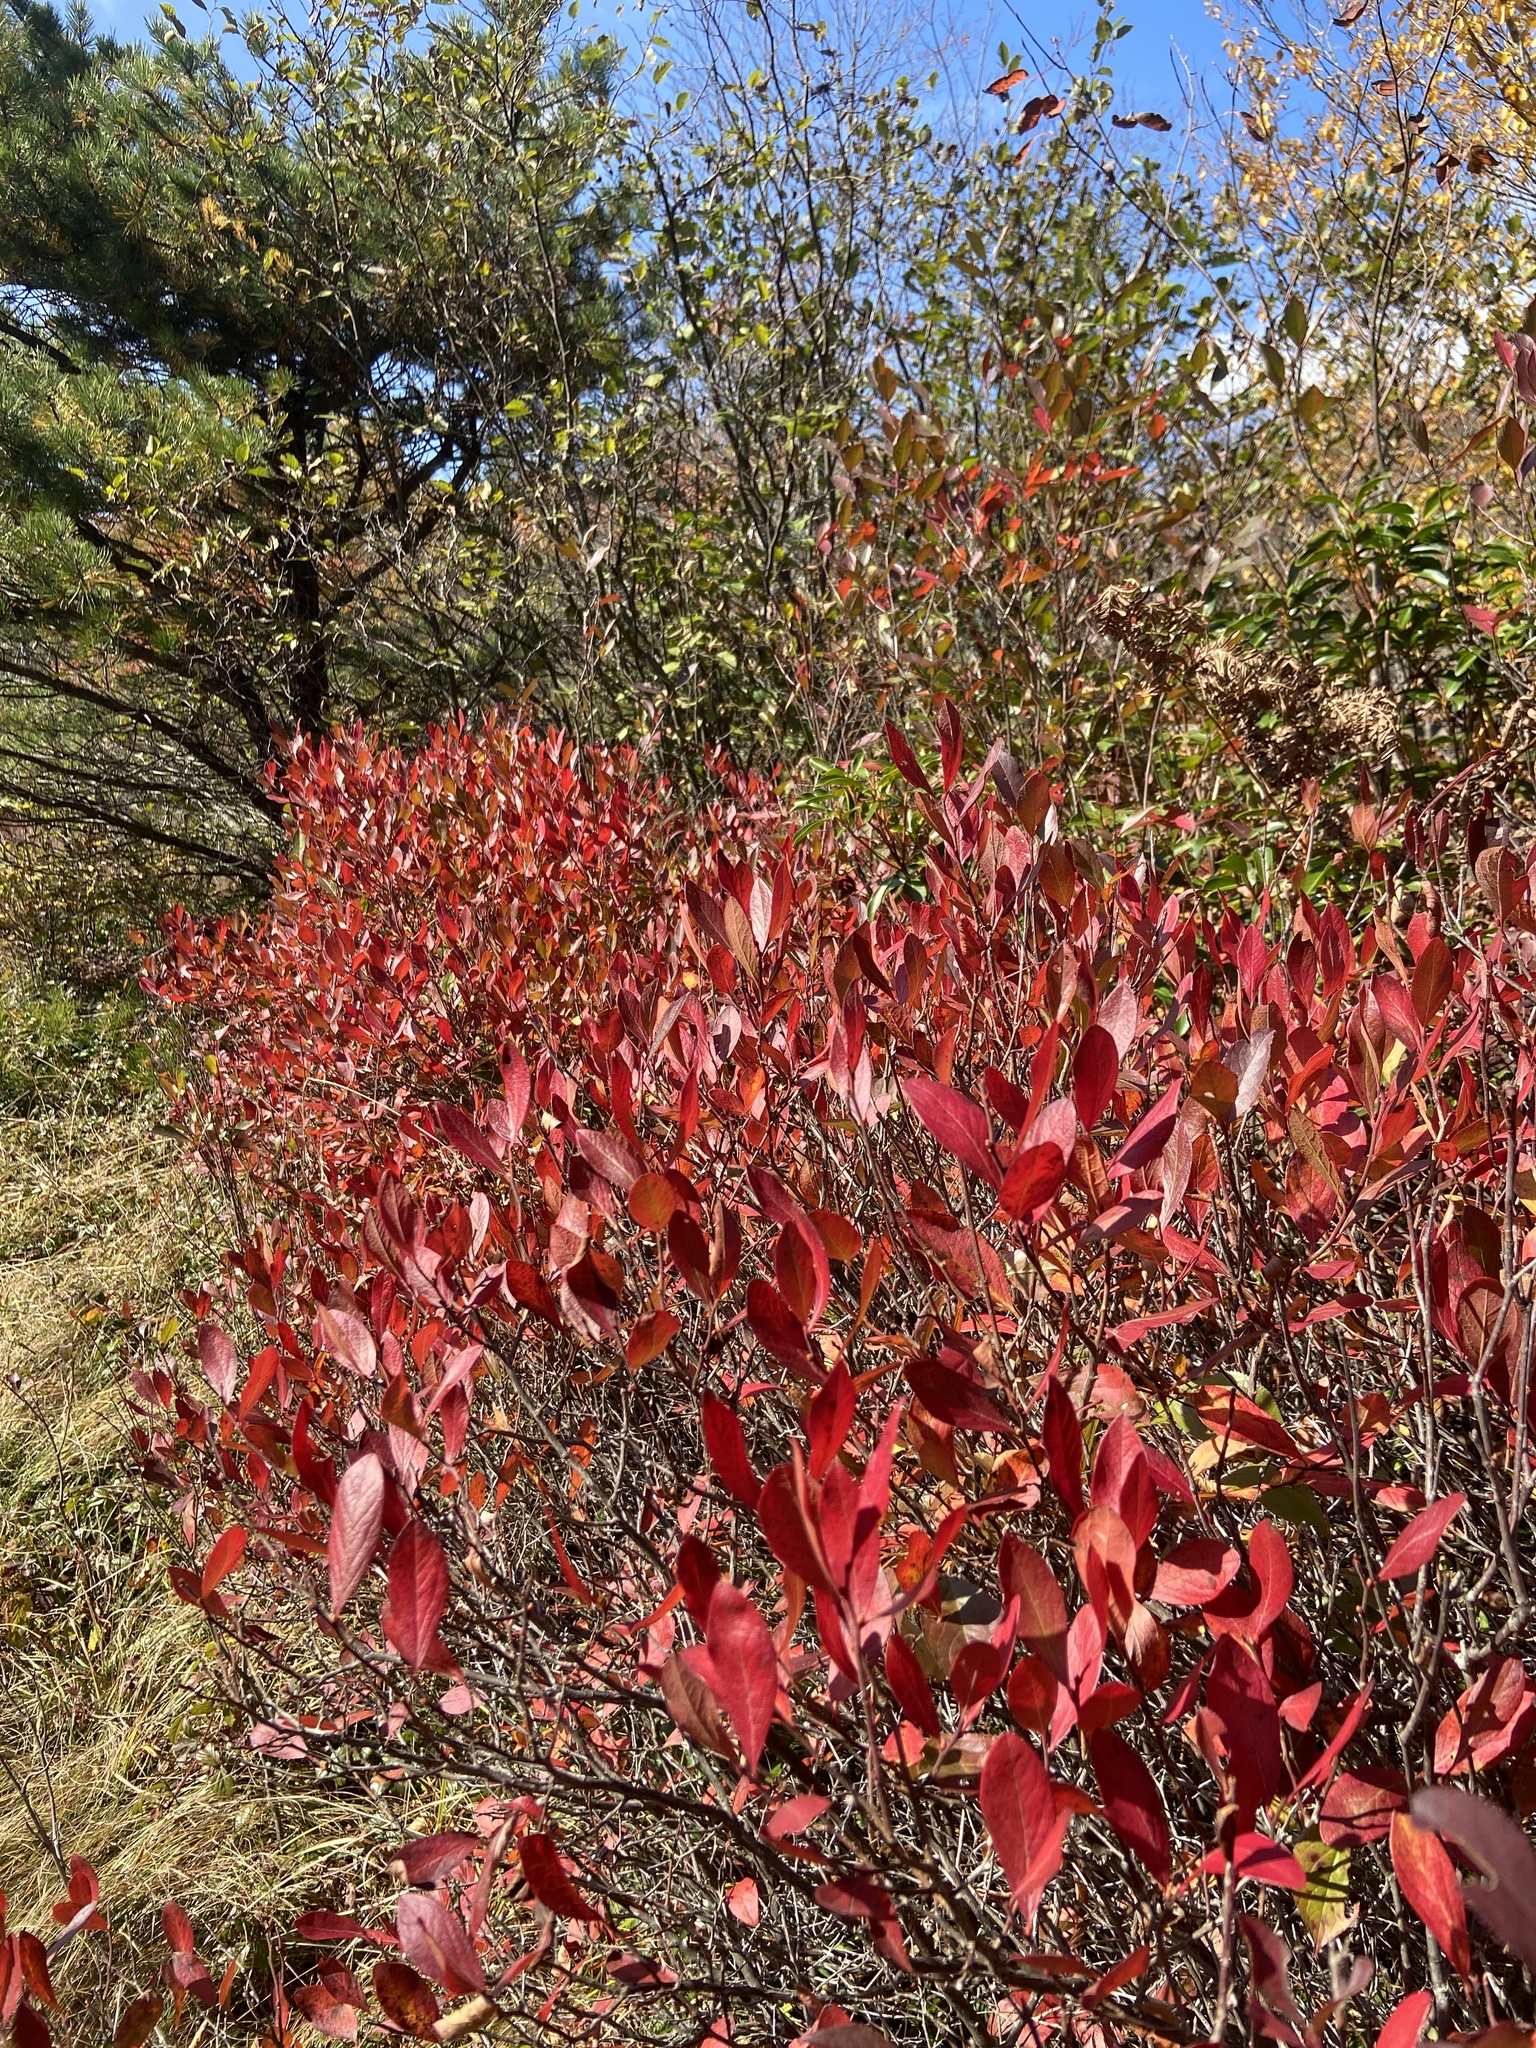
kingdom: Plantae
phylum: Tracheophyta
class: Magnoliopsida
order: Ericales
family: Ericaceae
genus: Gaylussacia
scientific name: Gaylussacia baccata
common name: Black huckleberry
